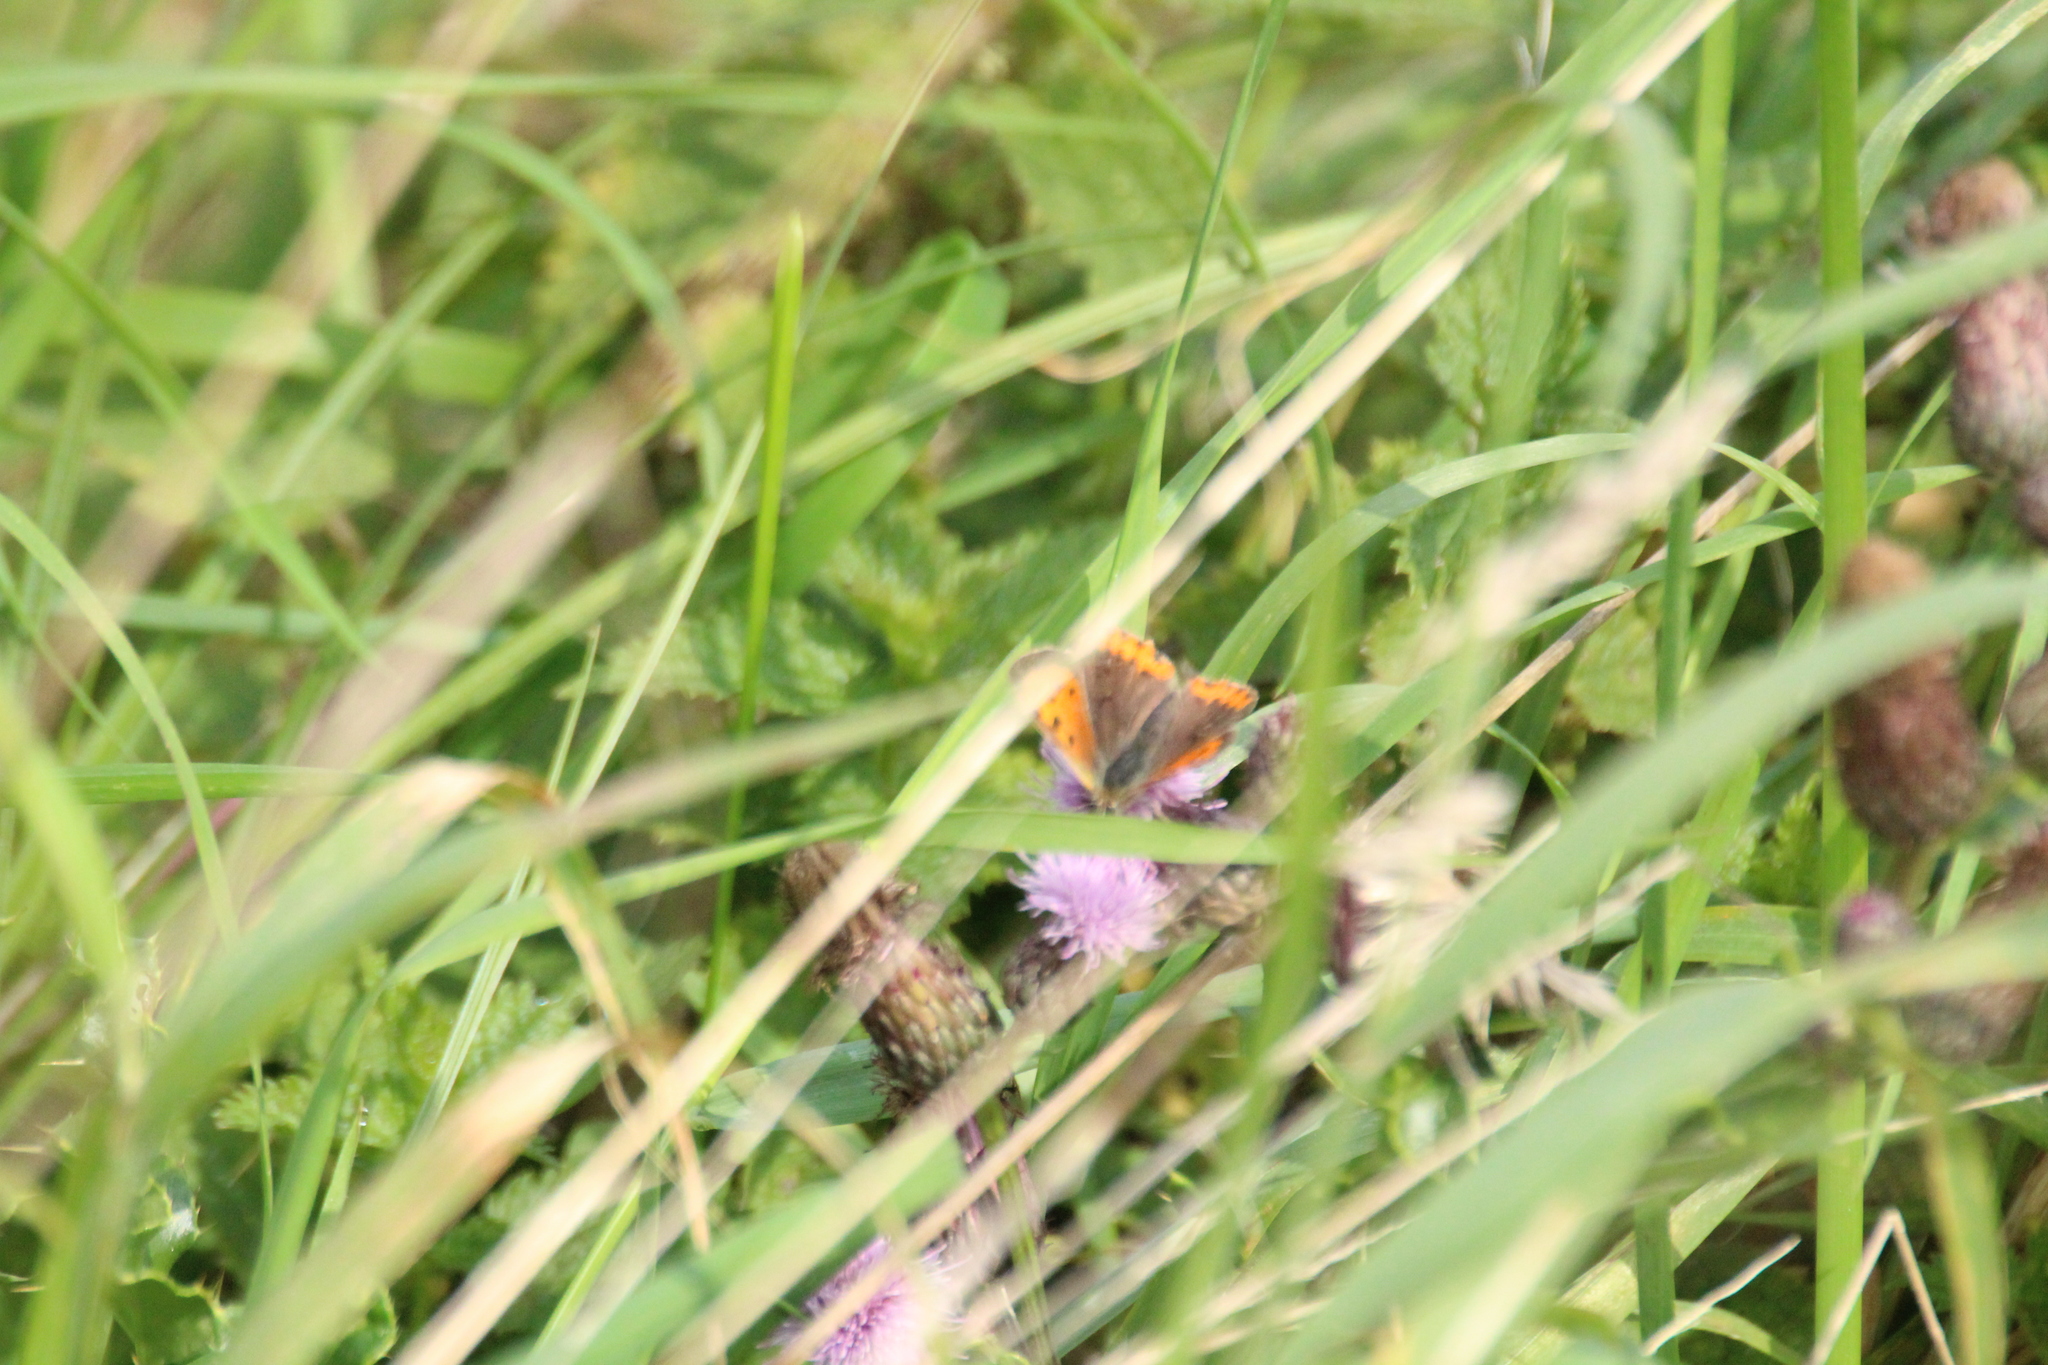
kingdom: Animalia
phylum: Arthropoda
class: Insecta
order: Lepidoptera
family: Lycaenidae
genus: Lycaena
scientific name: Lycaena phlaeas
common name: Small copper
